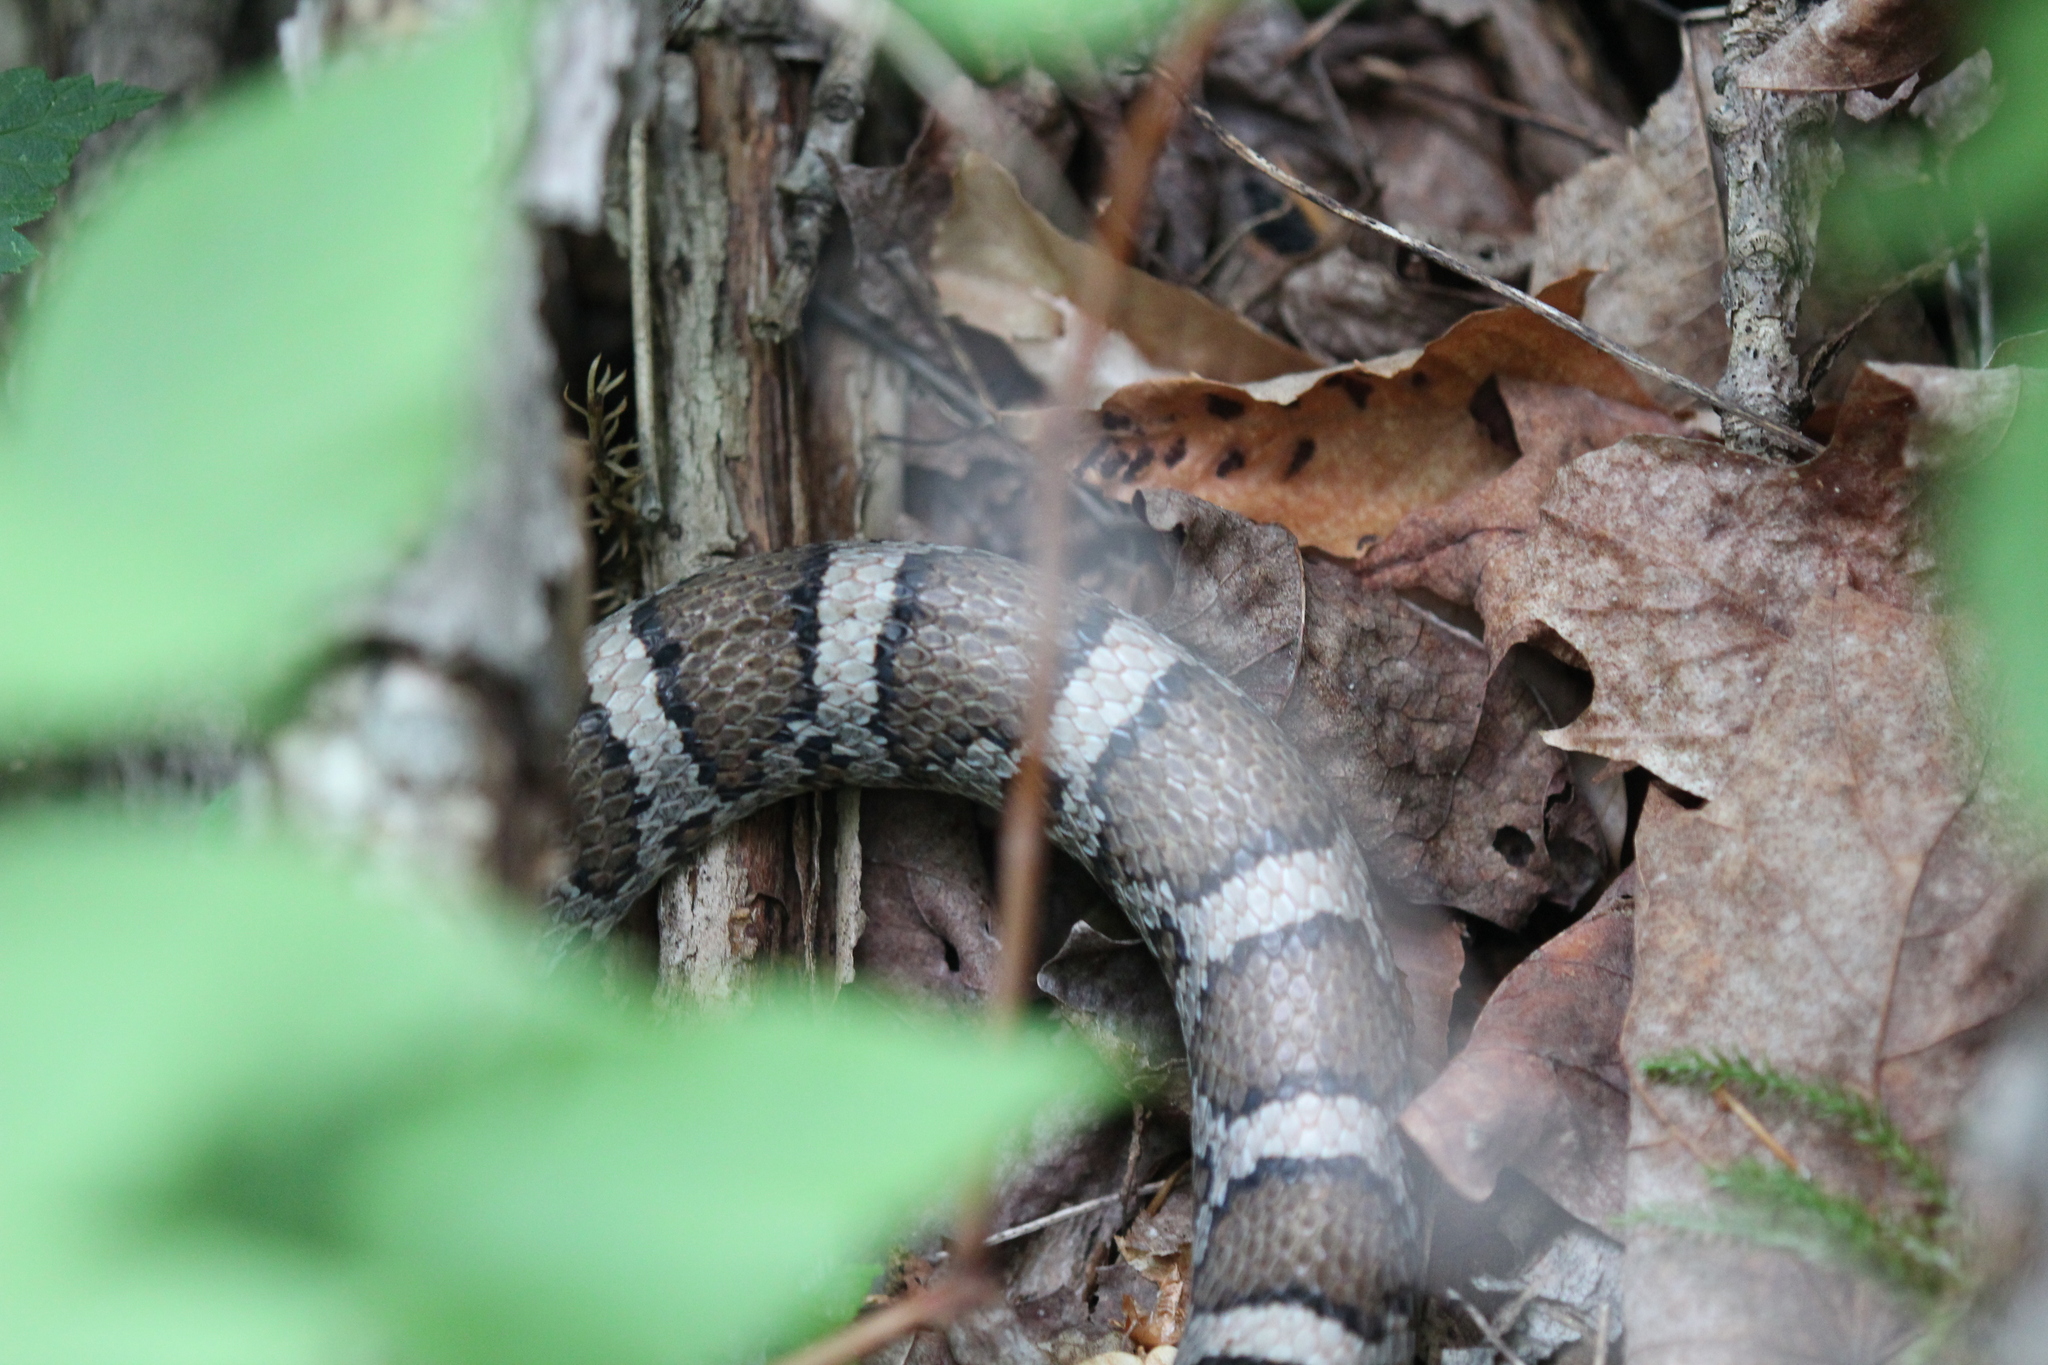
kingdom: Animalia
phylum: Chordata
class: Squamata
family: Colubridae
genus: Lampropeltis
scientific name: Lampropeltis triangulum
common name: Eastern milksnake
